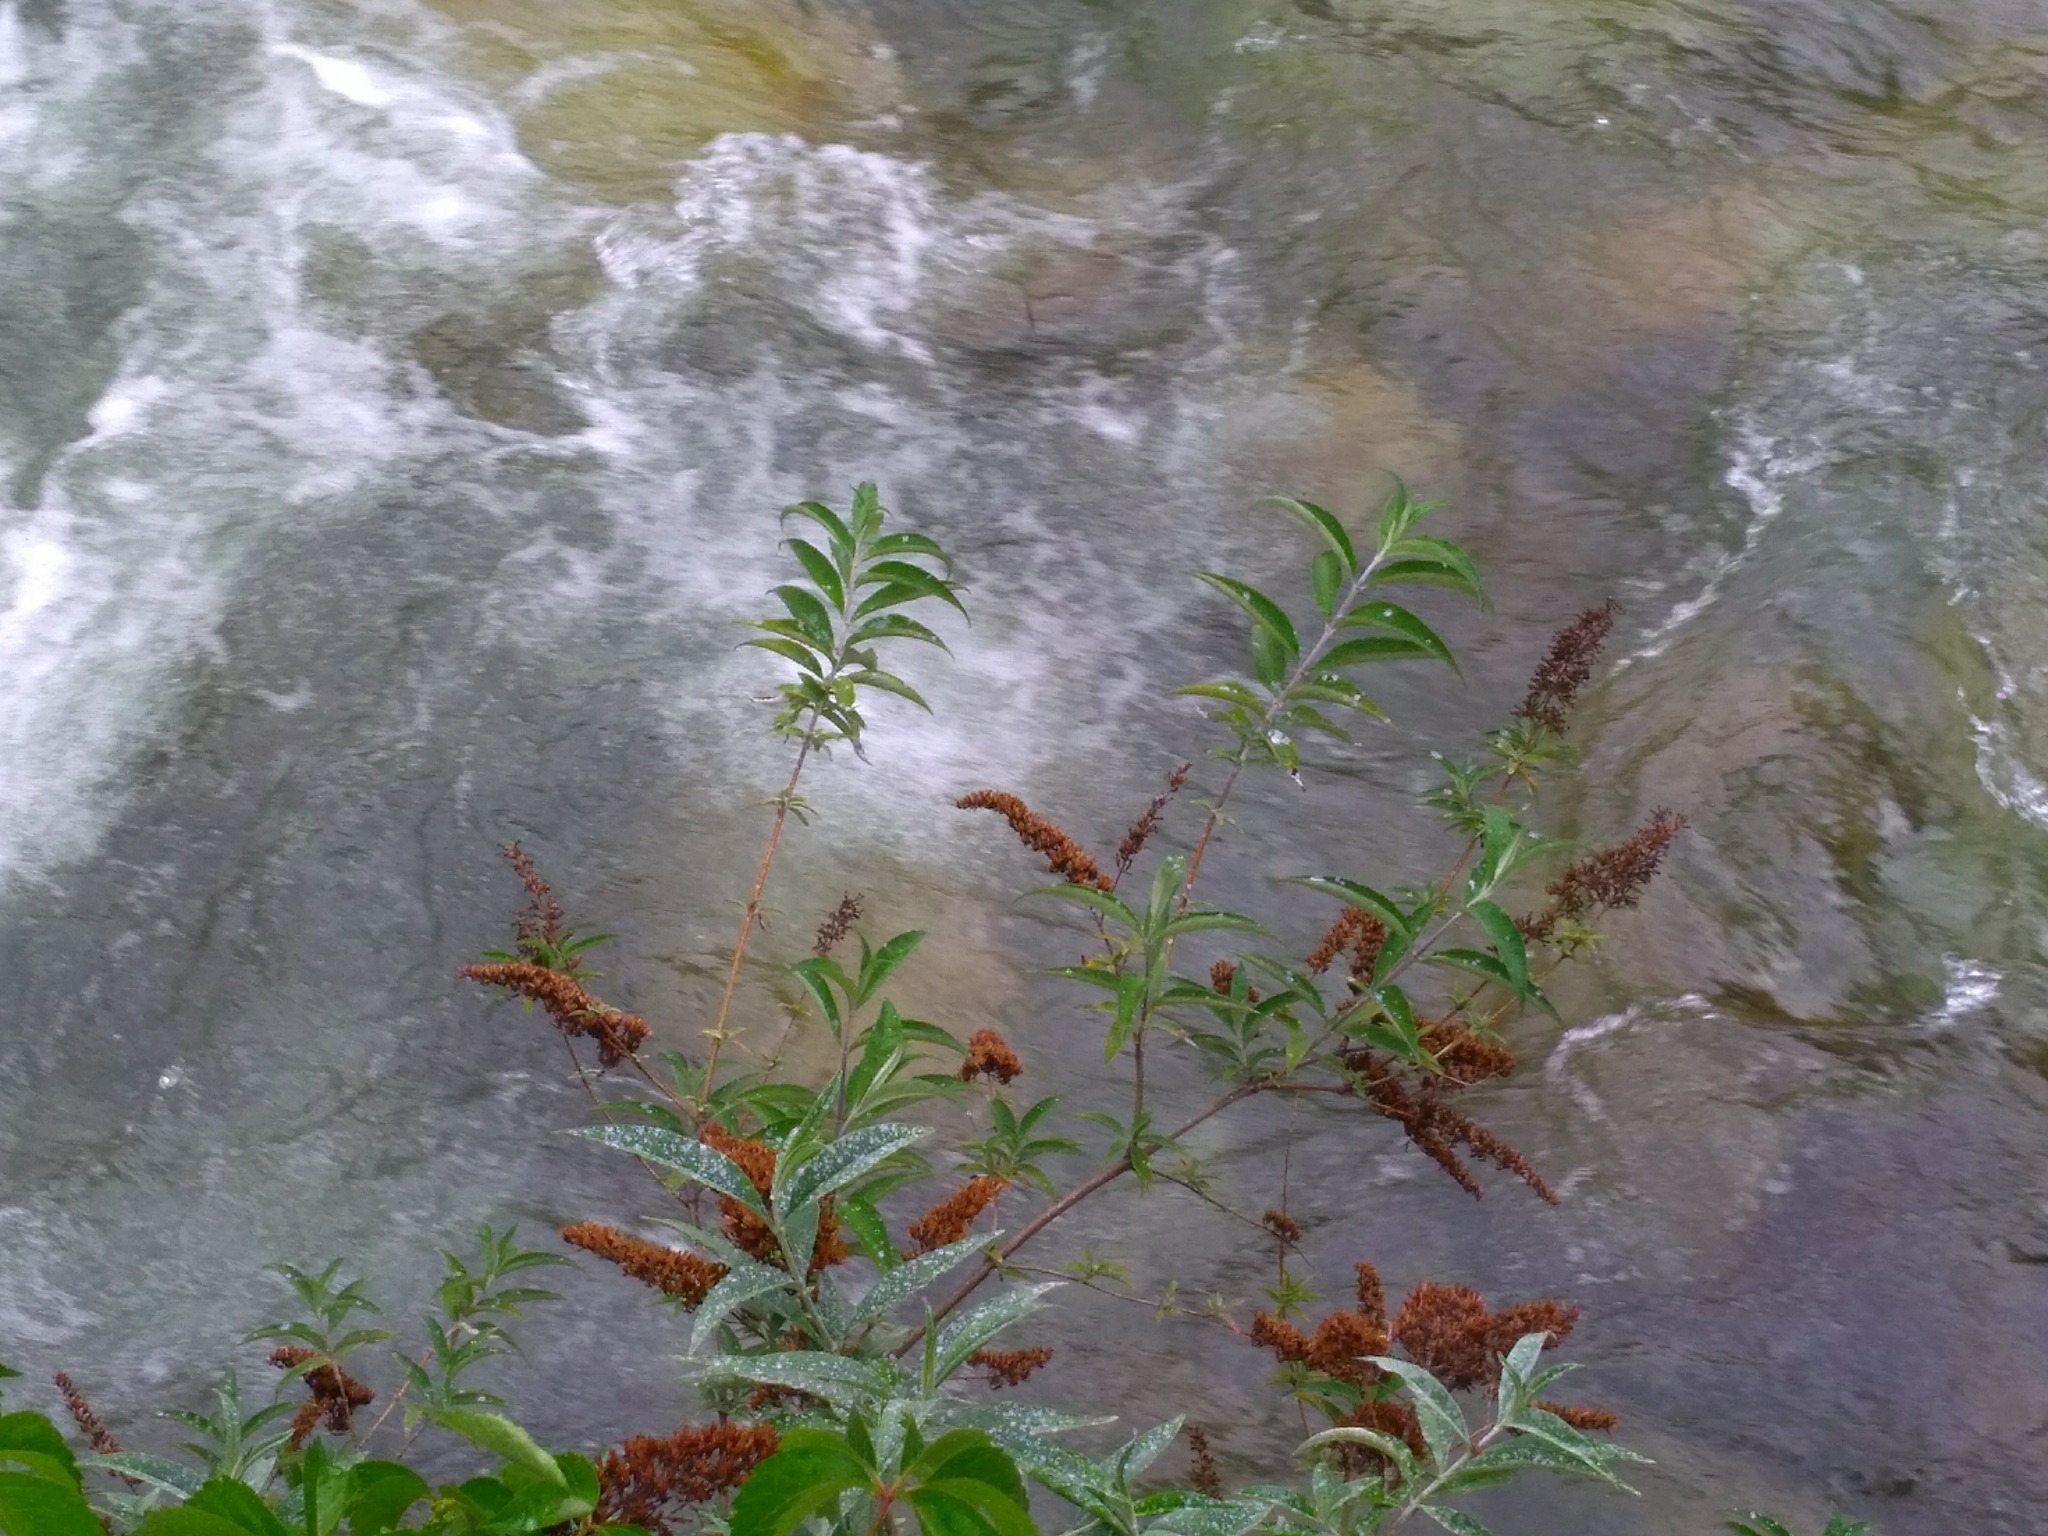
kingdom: Plantae
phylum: Tracheophyta
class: Magnoliopsida
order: Lamiales
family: Scrophulariaceae
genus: Buddleja
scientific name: Buddleja davidii
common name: Butterfly-bush
